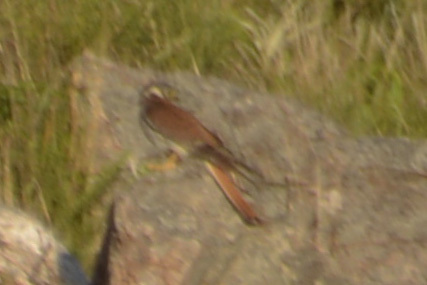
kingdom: Animalia
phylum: Chordata
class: Aves
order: Falconiformes
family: Falconidae
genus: Falco
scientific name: Falco sparverius
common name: American kestrel
